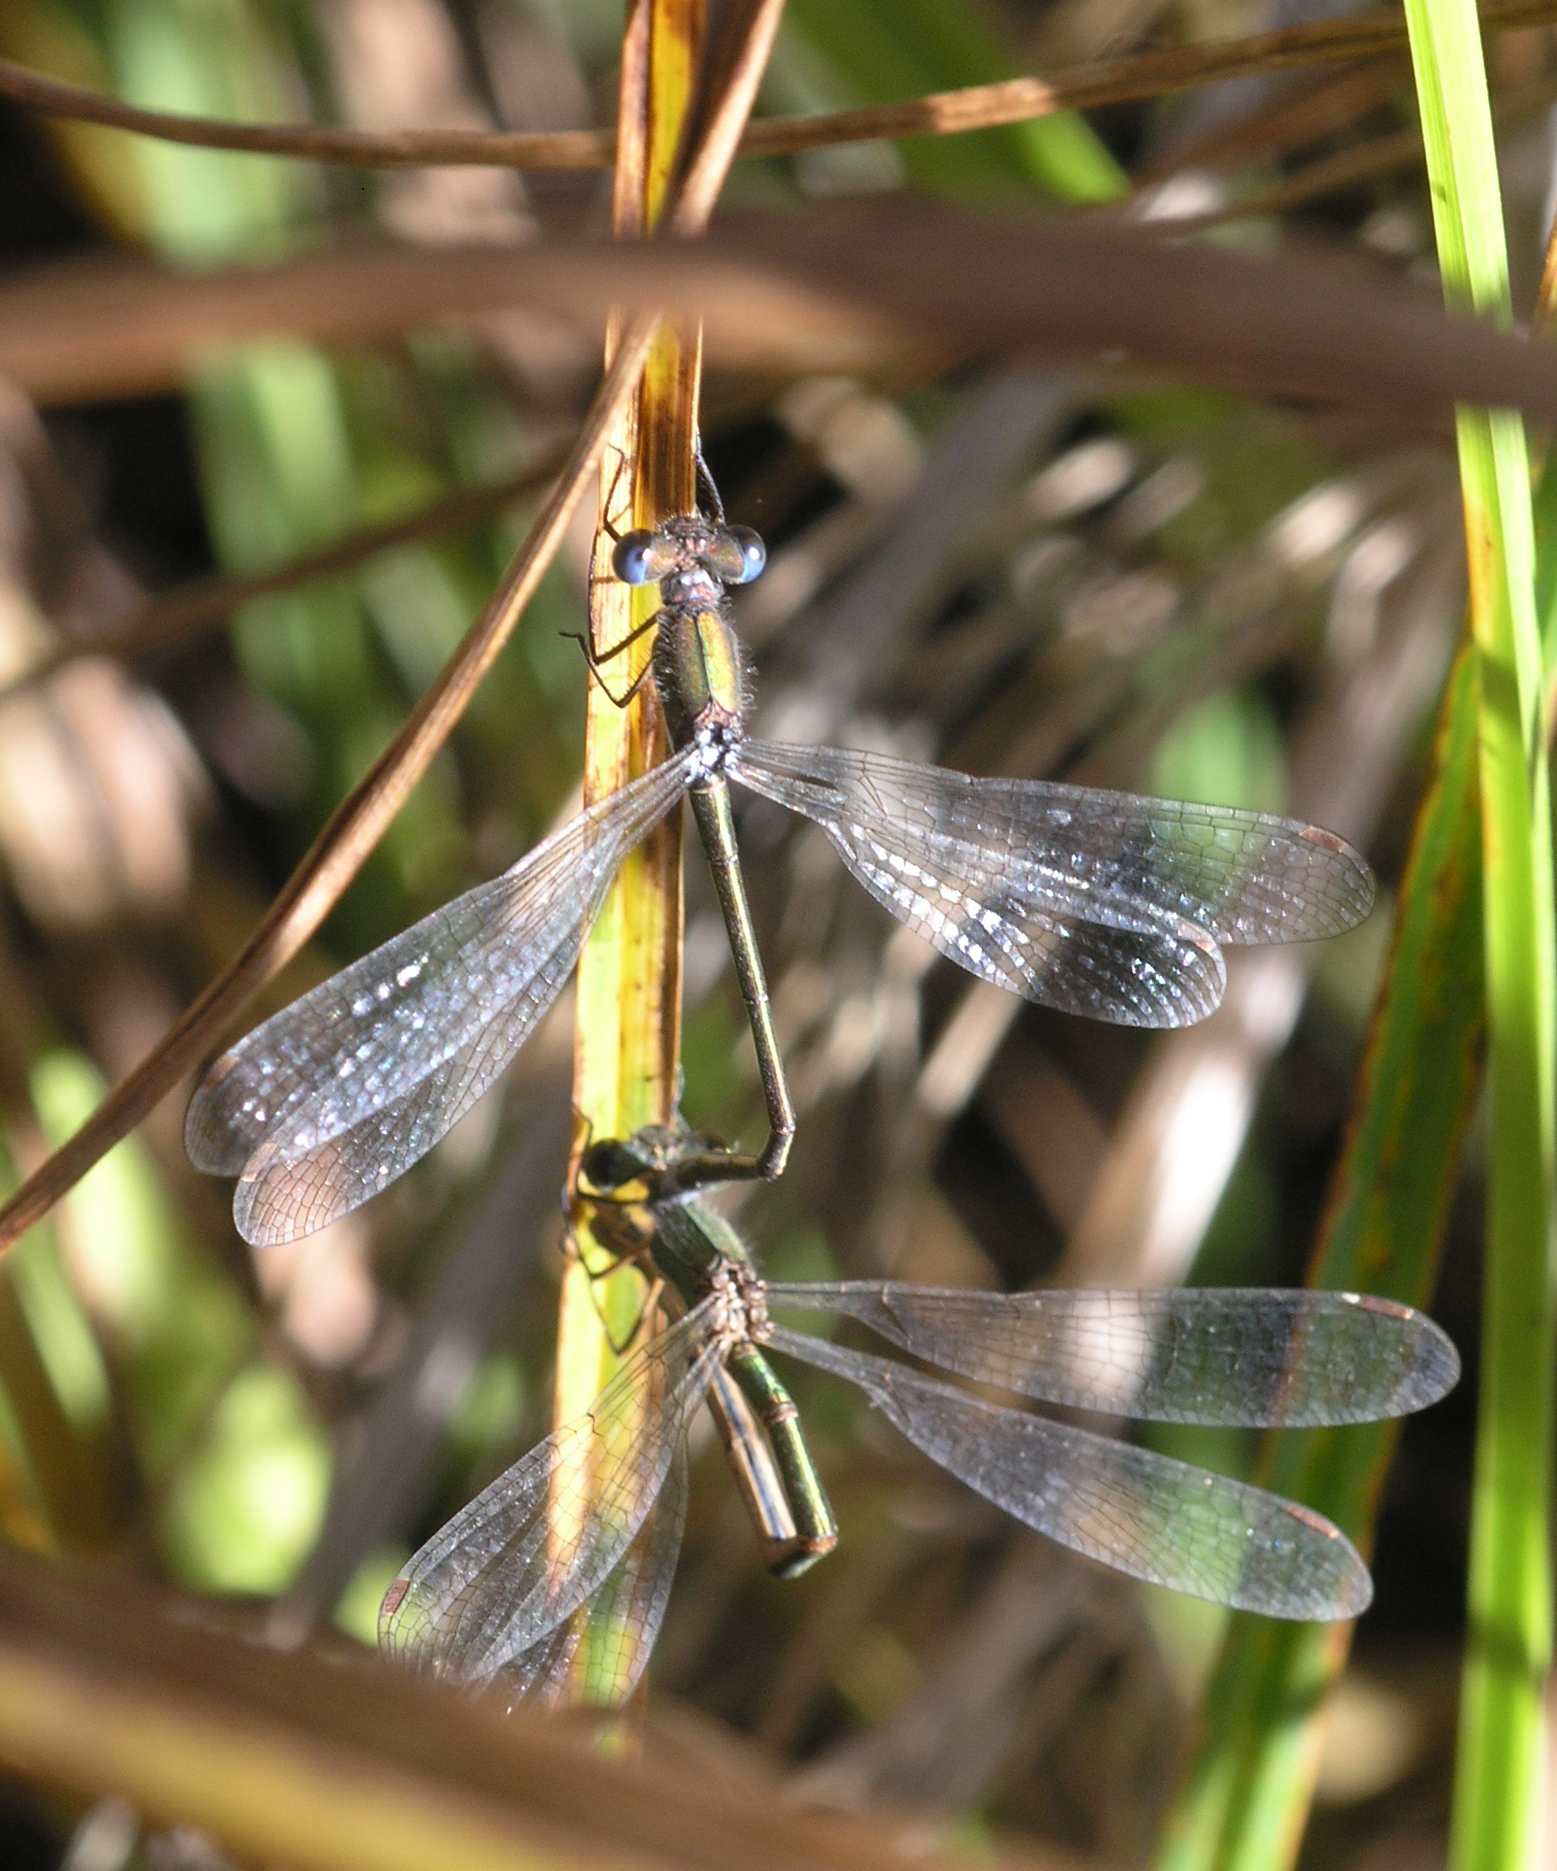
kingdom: Animalia
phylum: Arthropoda
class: Insecta
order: Odonata
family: Lestidae
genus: Lestes
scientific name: Lestes virens
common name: Small emerald spreadwing
